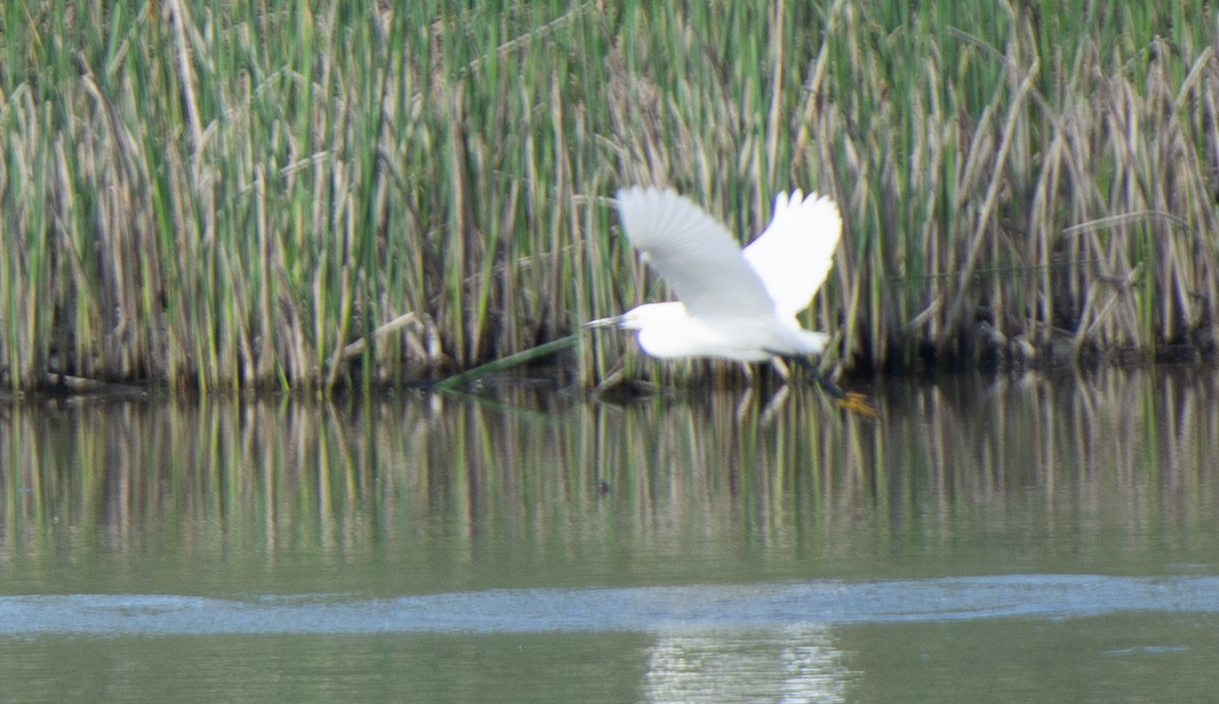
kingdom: Animalia
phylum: Chordata
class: Aves
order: Pelecaniformes
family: Ardeidae
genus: Egretta
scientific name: Egretta thula
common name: Snowy egret
